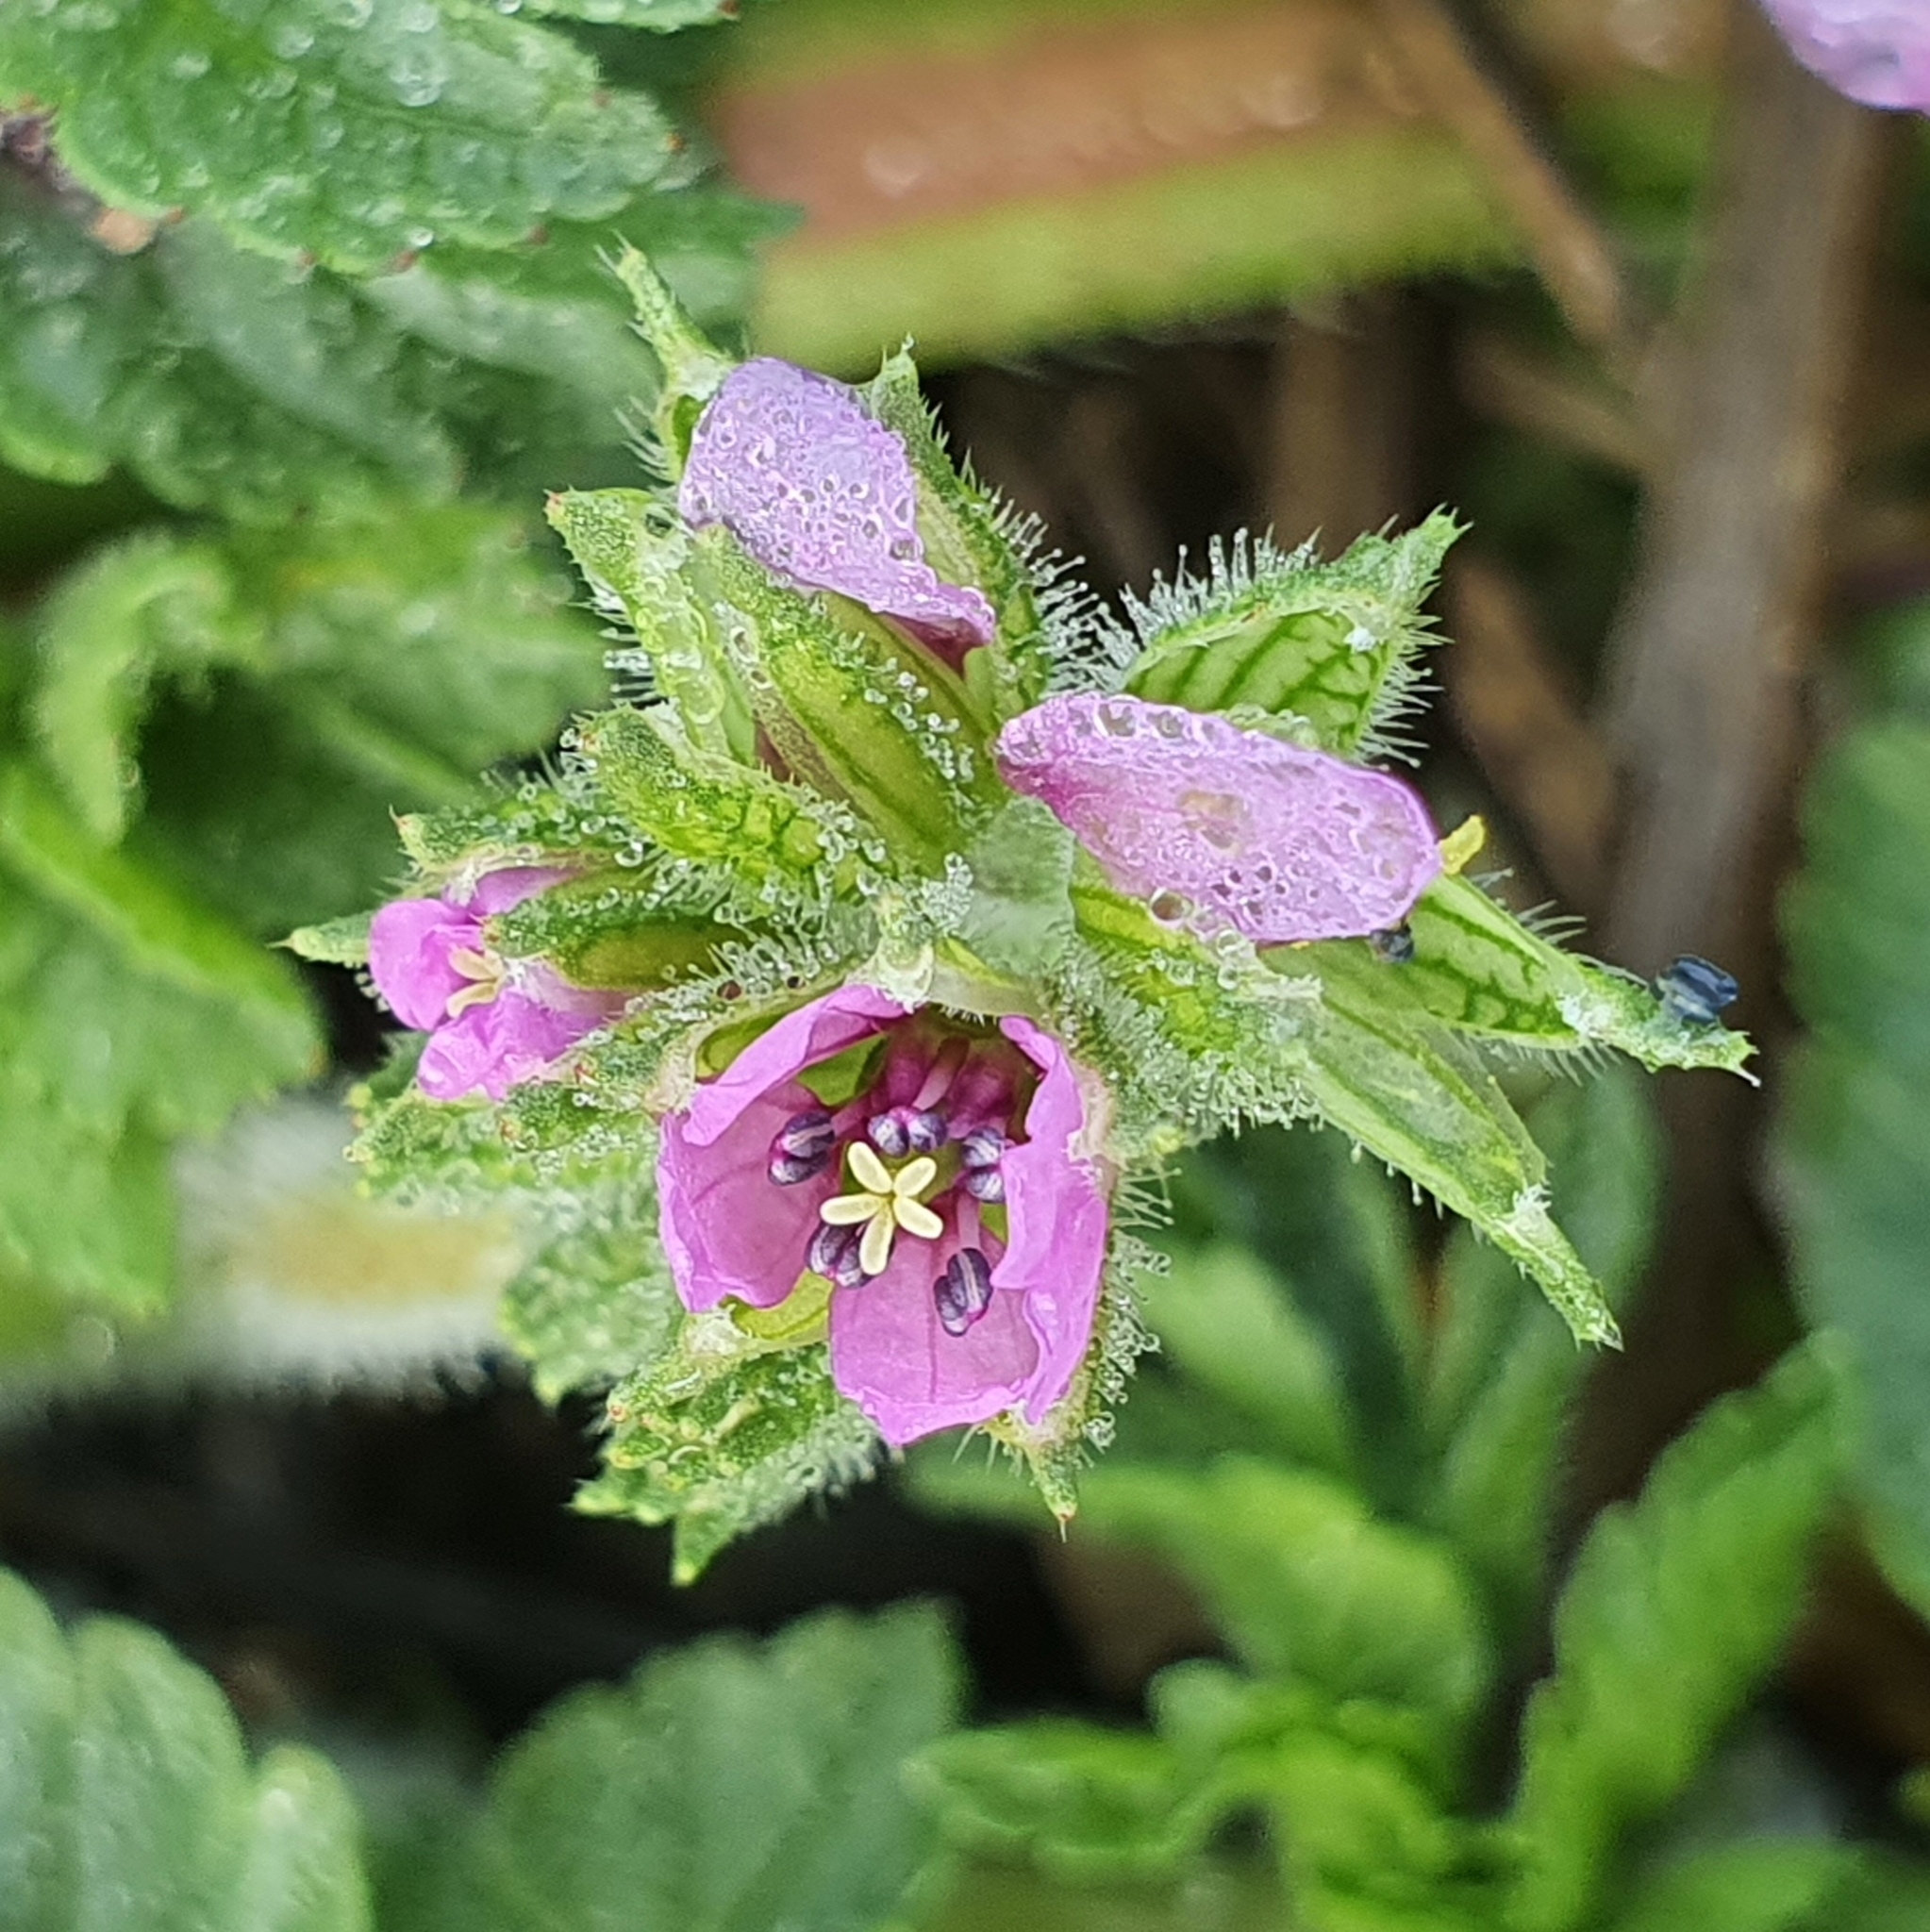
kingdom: Plantae
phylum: Tracheophyta
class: Magnoliopsida
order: Geraniales
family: Geraniaceae
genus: Erodium
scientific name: Erodium moschatum
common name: Musk stork's-bill
